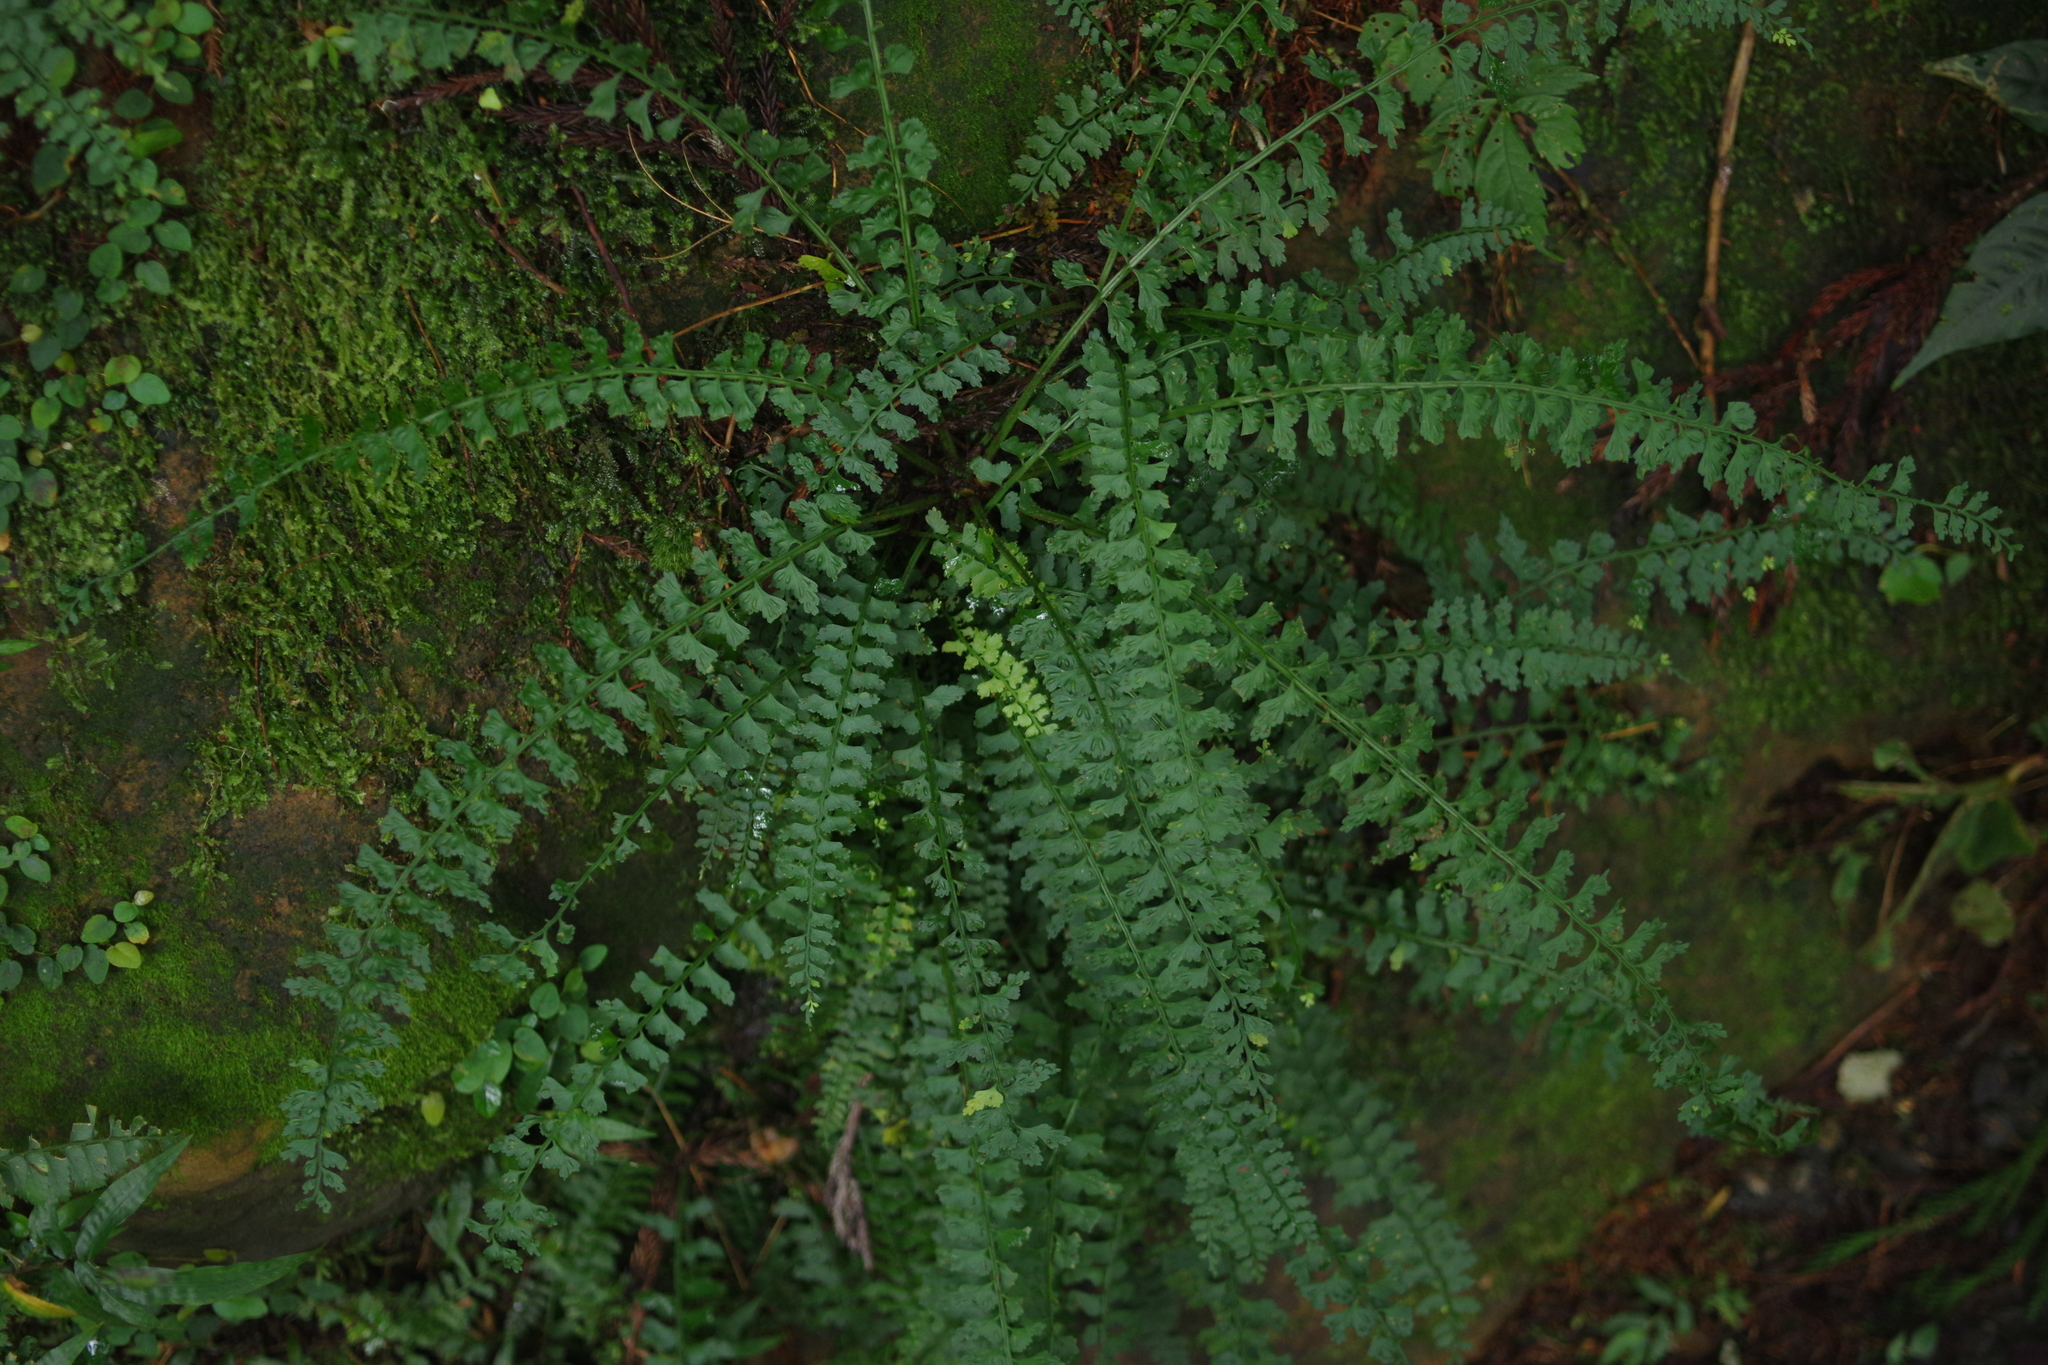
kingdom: Plantae
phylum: Tracheophyta
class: Polypodiopsida
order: Polypodiales
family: Aspleniaceae
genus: Asplenium
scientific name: Asplenium gueinzianum
